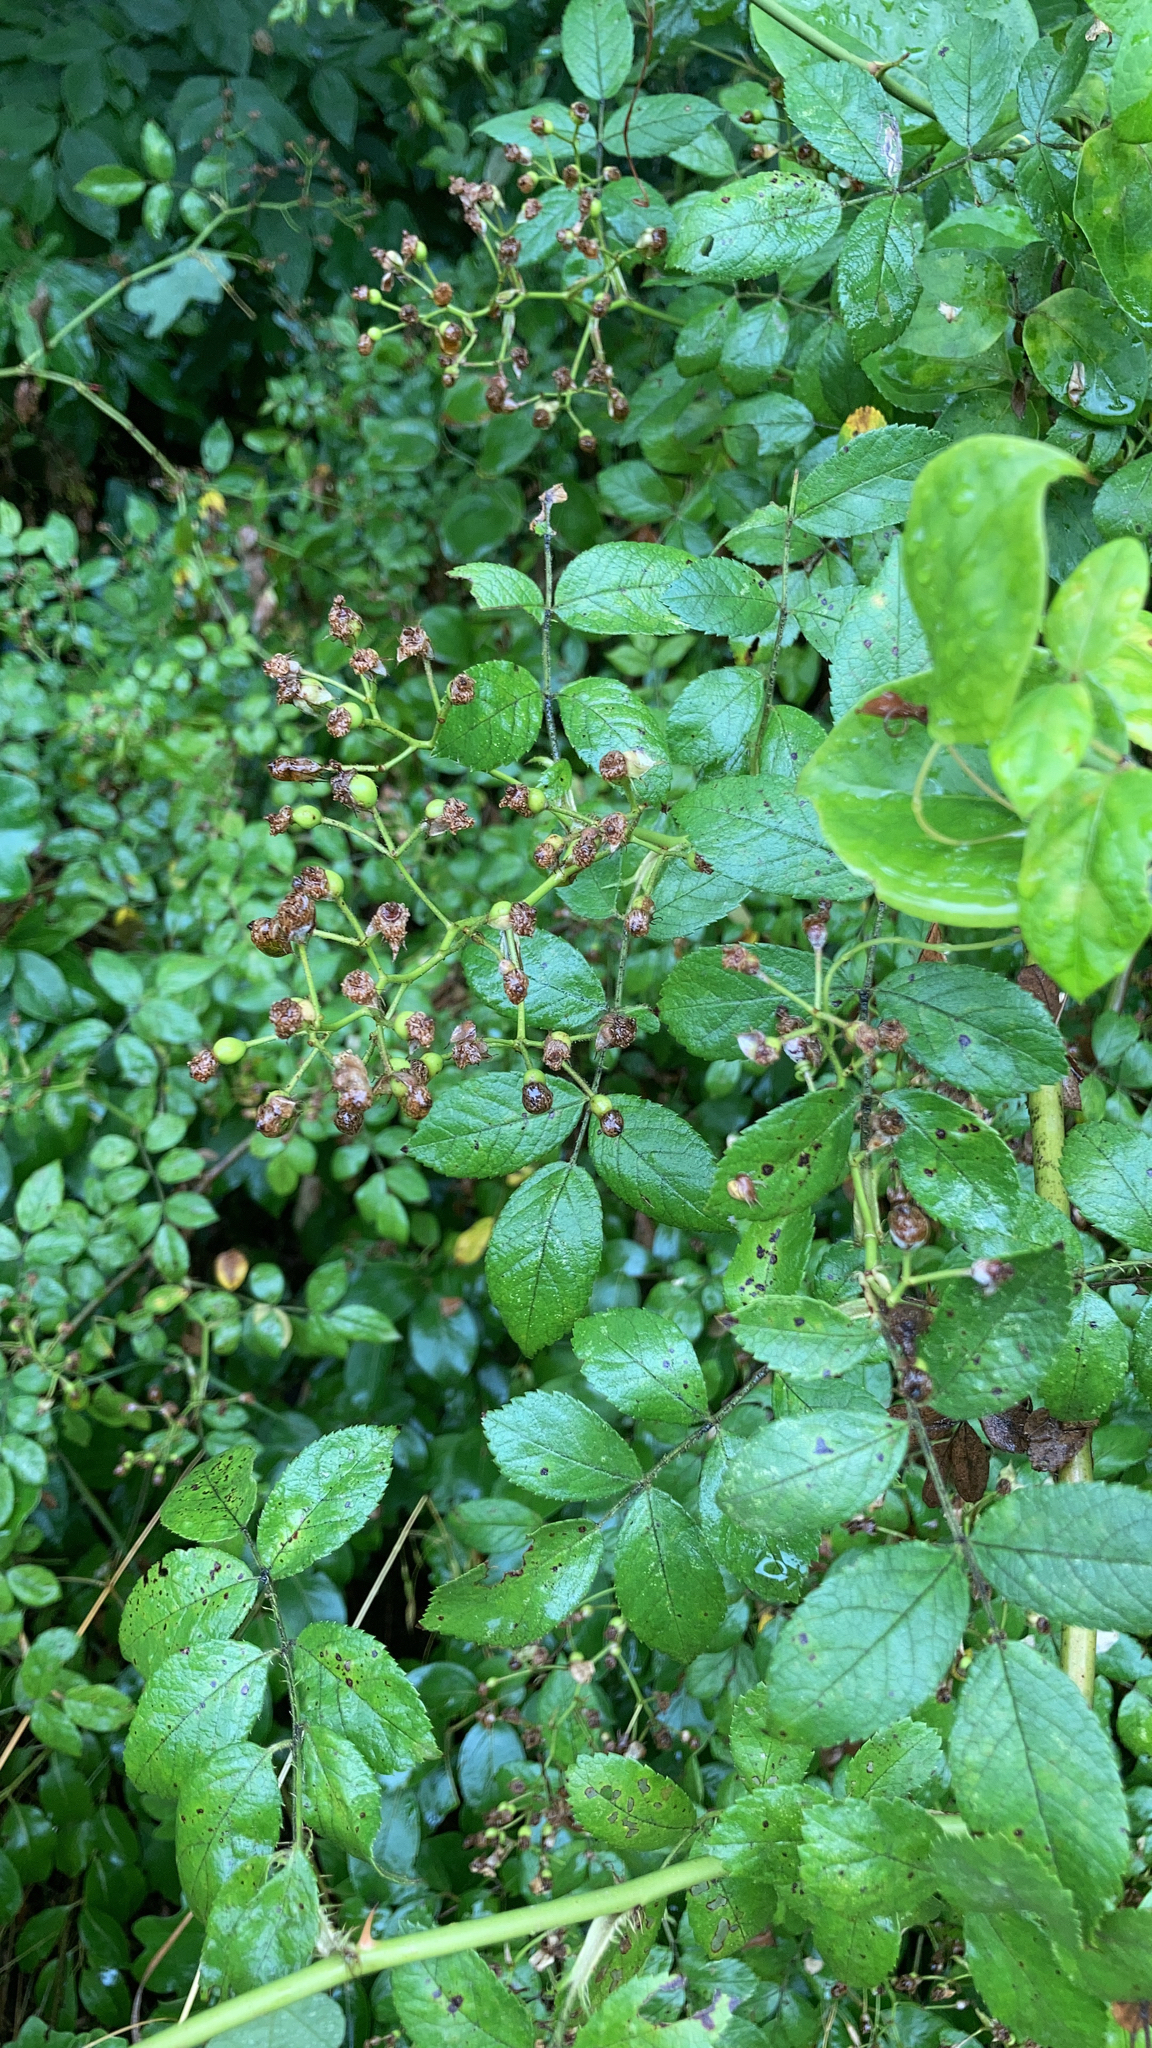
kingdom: Plantae
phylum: Tracheophyta
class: Magnoliopsida
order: Rosales
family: Rosaceae
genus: Rosa
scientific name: Rosa multiflora
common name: Multiflora rose
